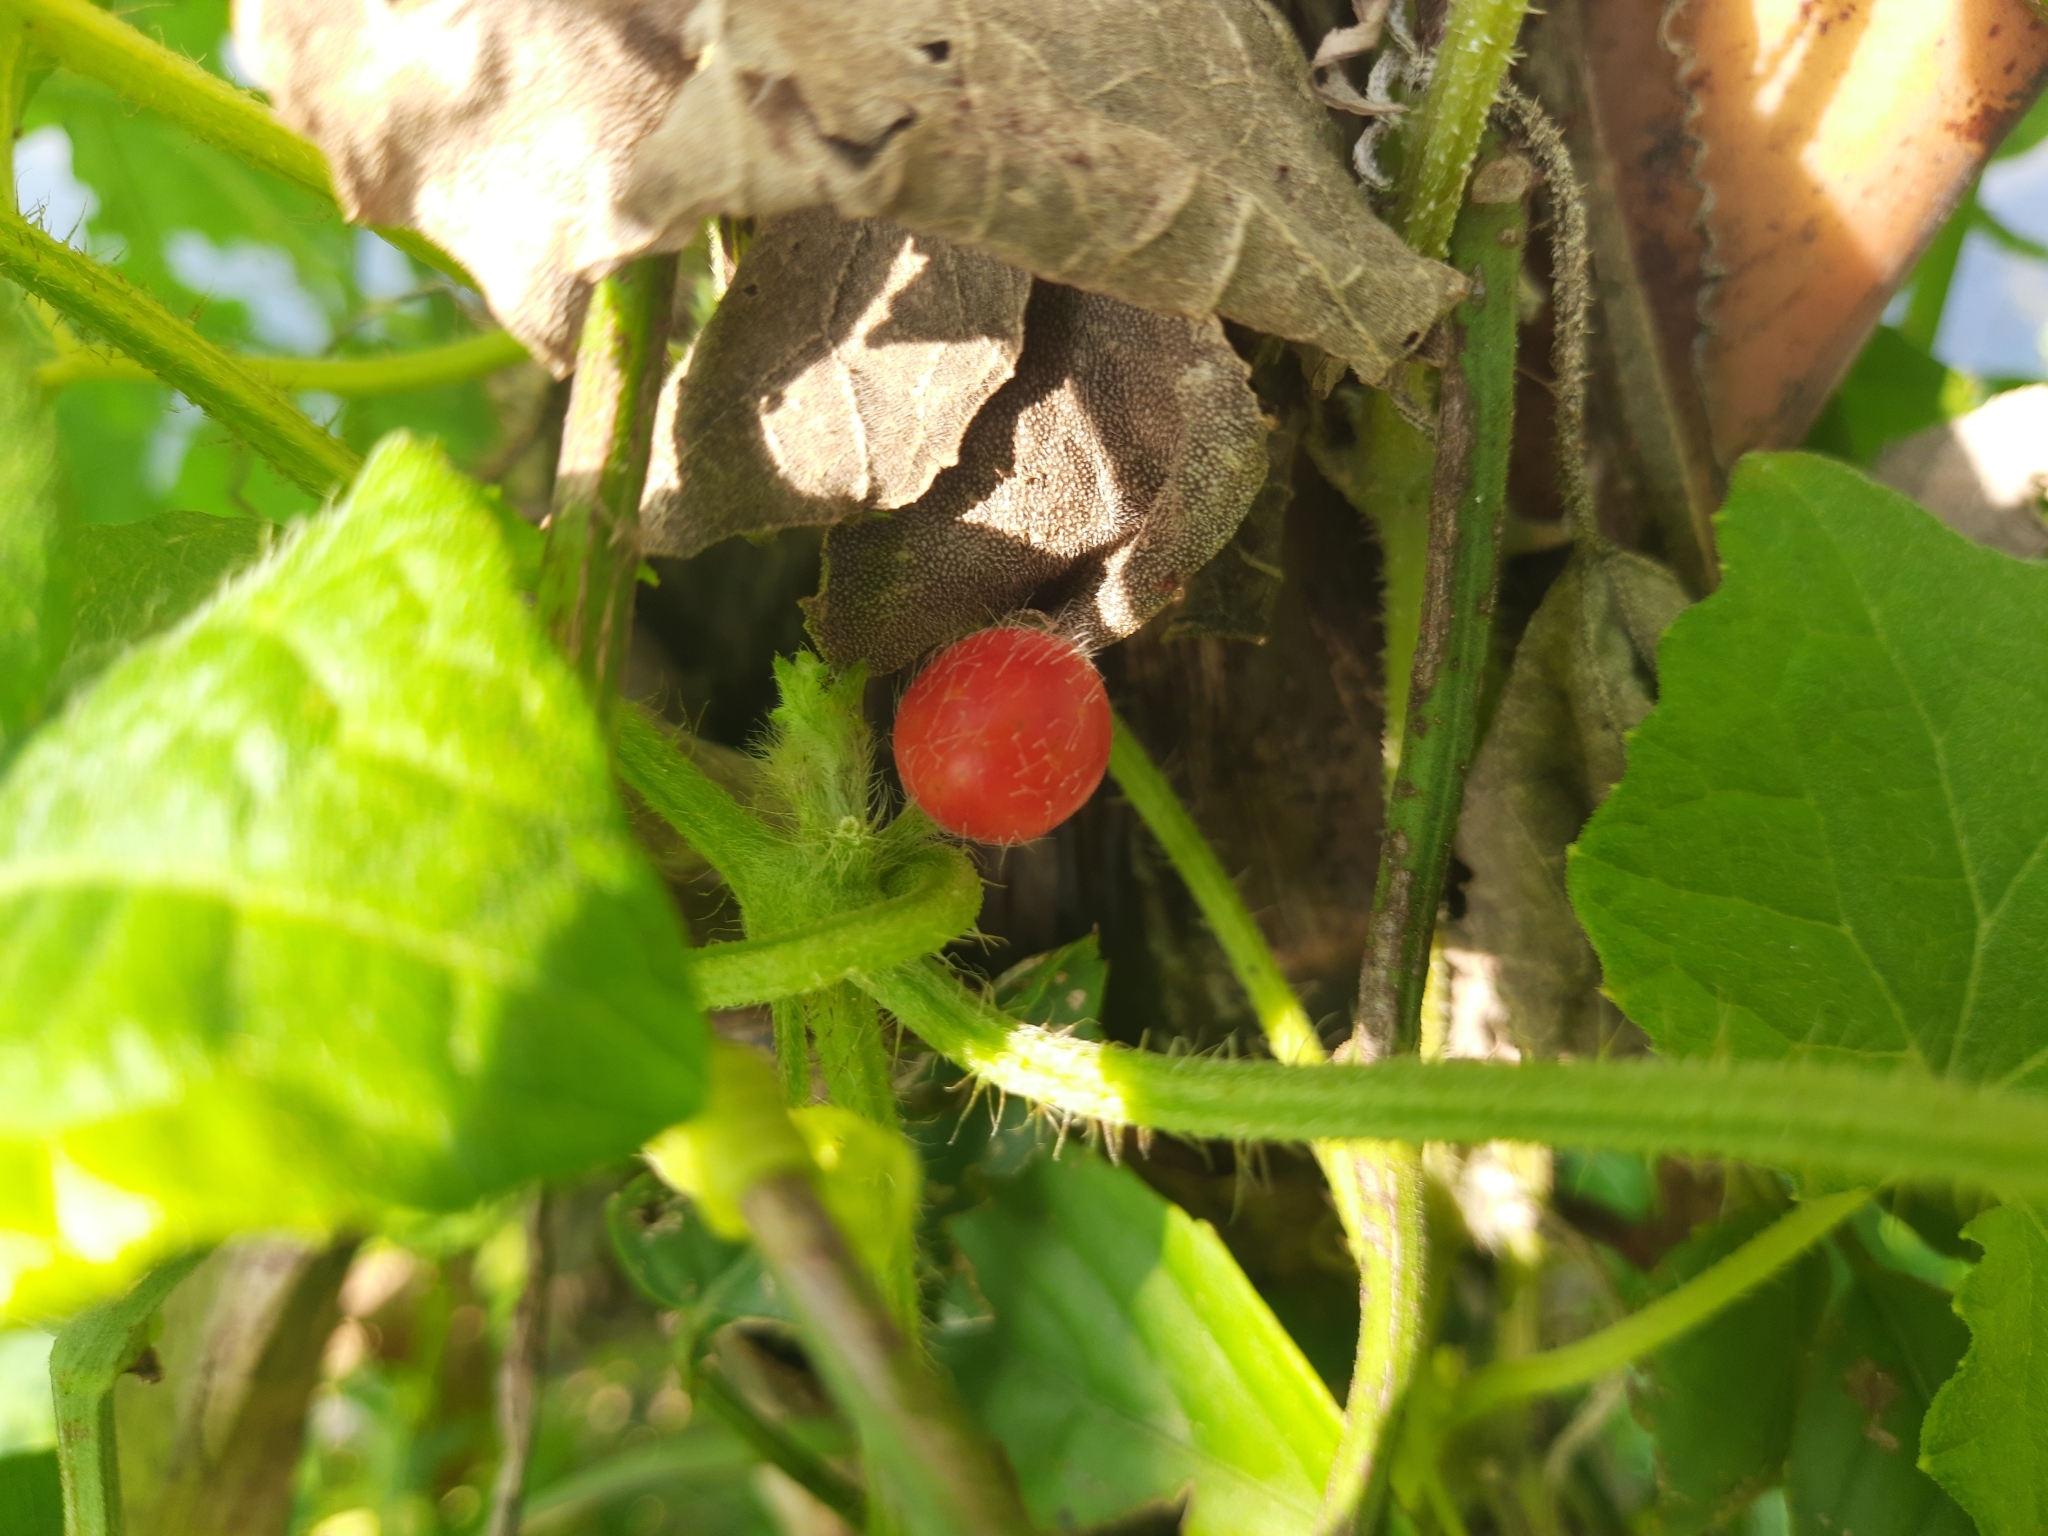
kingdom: Plantae
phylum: Tracheophyta
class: Magnoliopsida
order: Cucurbitales
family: Cucurbitaceae
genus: Cucumis
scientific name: Cucumis maderaspatanus
